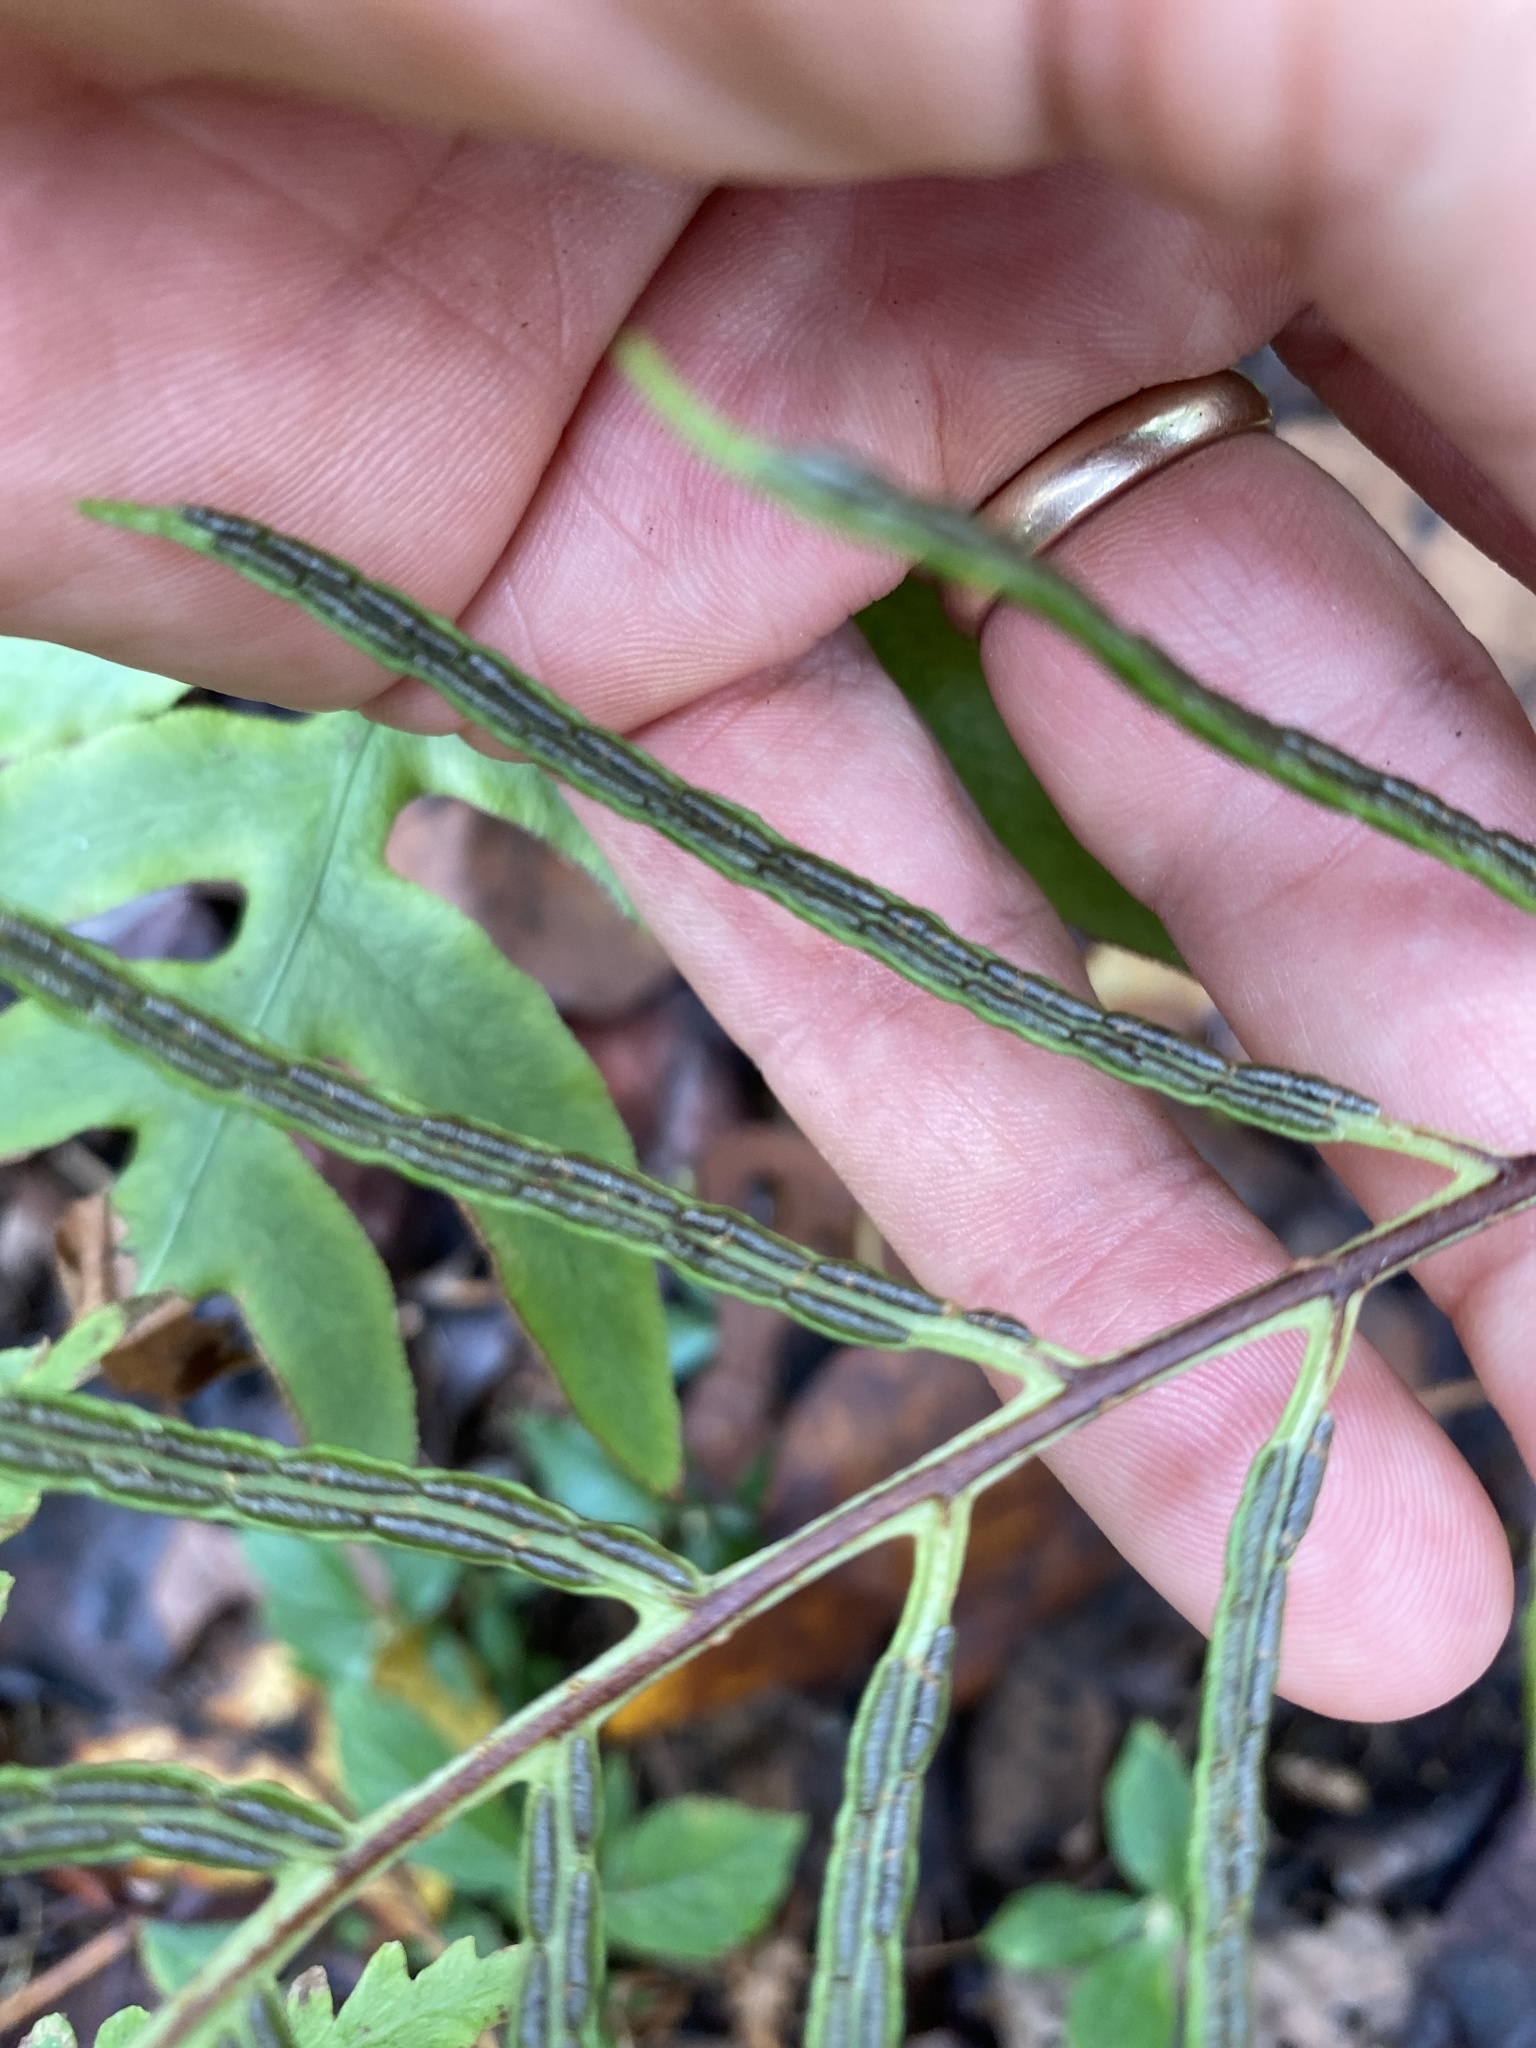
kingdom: Plantae
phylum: Tracheophyta
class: Polypodiopsida
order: Polypodiales
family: Blechnaceae
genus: Lorinseria
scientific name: Lorinseria areolata
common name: Dwarf chain fern
